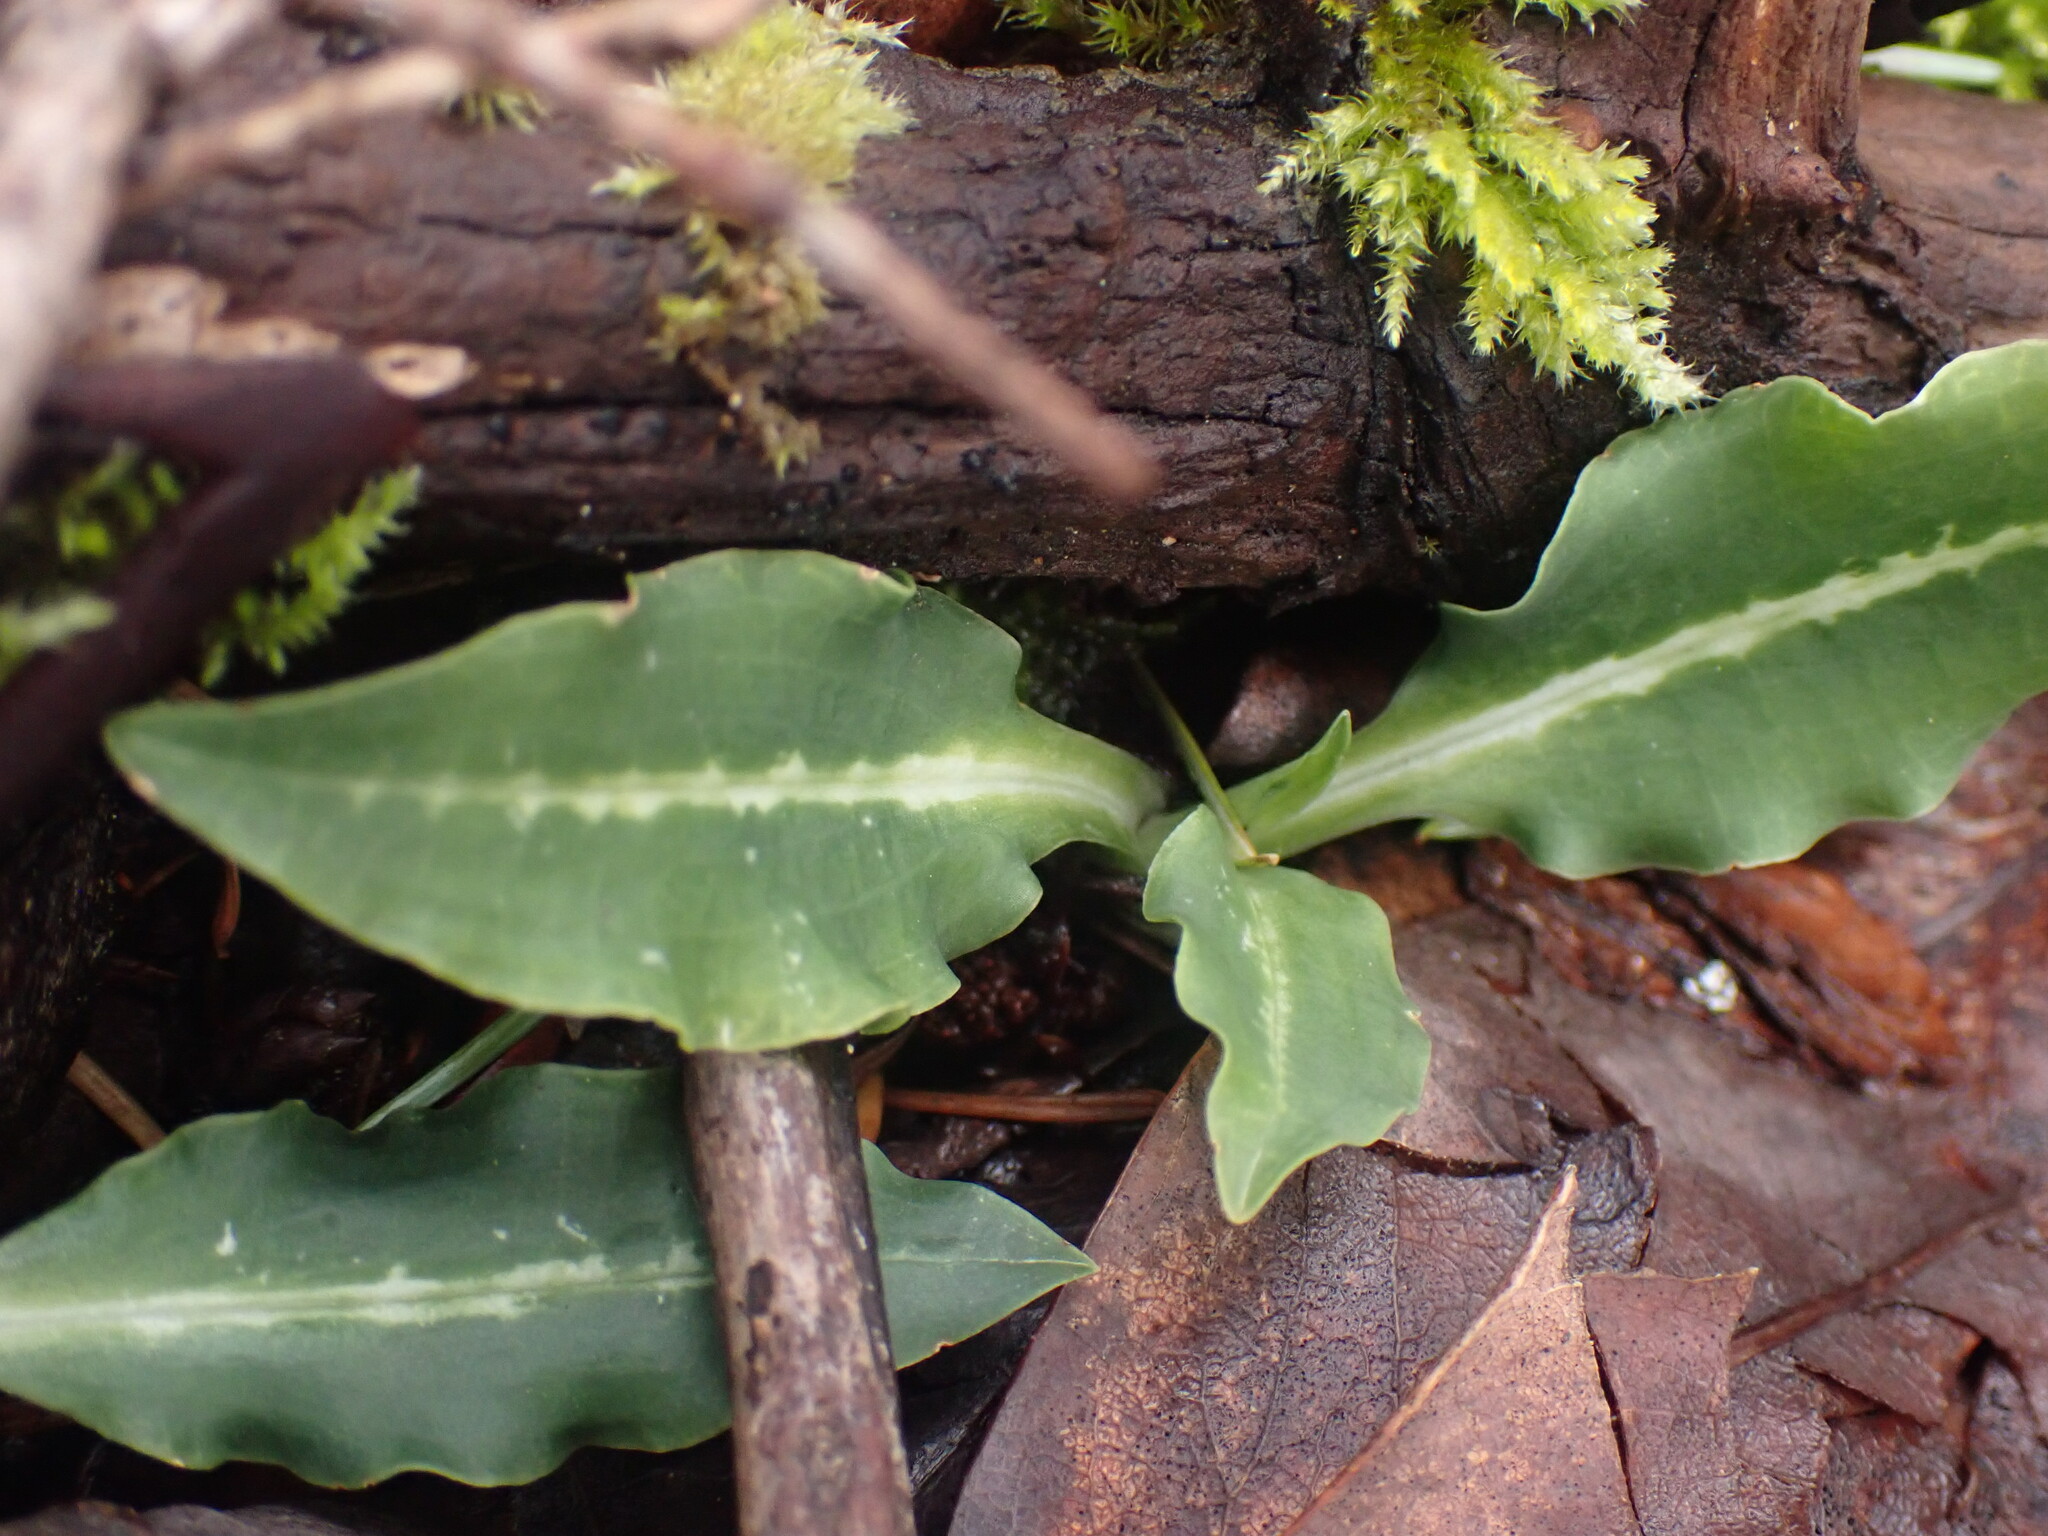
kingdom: Plantae
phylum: Tracheophyta
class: Liliopsida
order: Asparagales
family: Orchidaceae
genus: Goodyera
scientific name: Goodyera oblongifolia
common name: Giant rattlesnake-plantain
